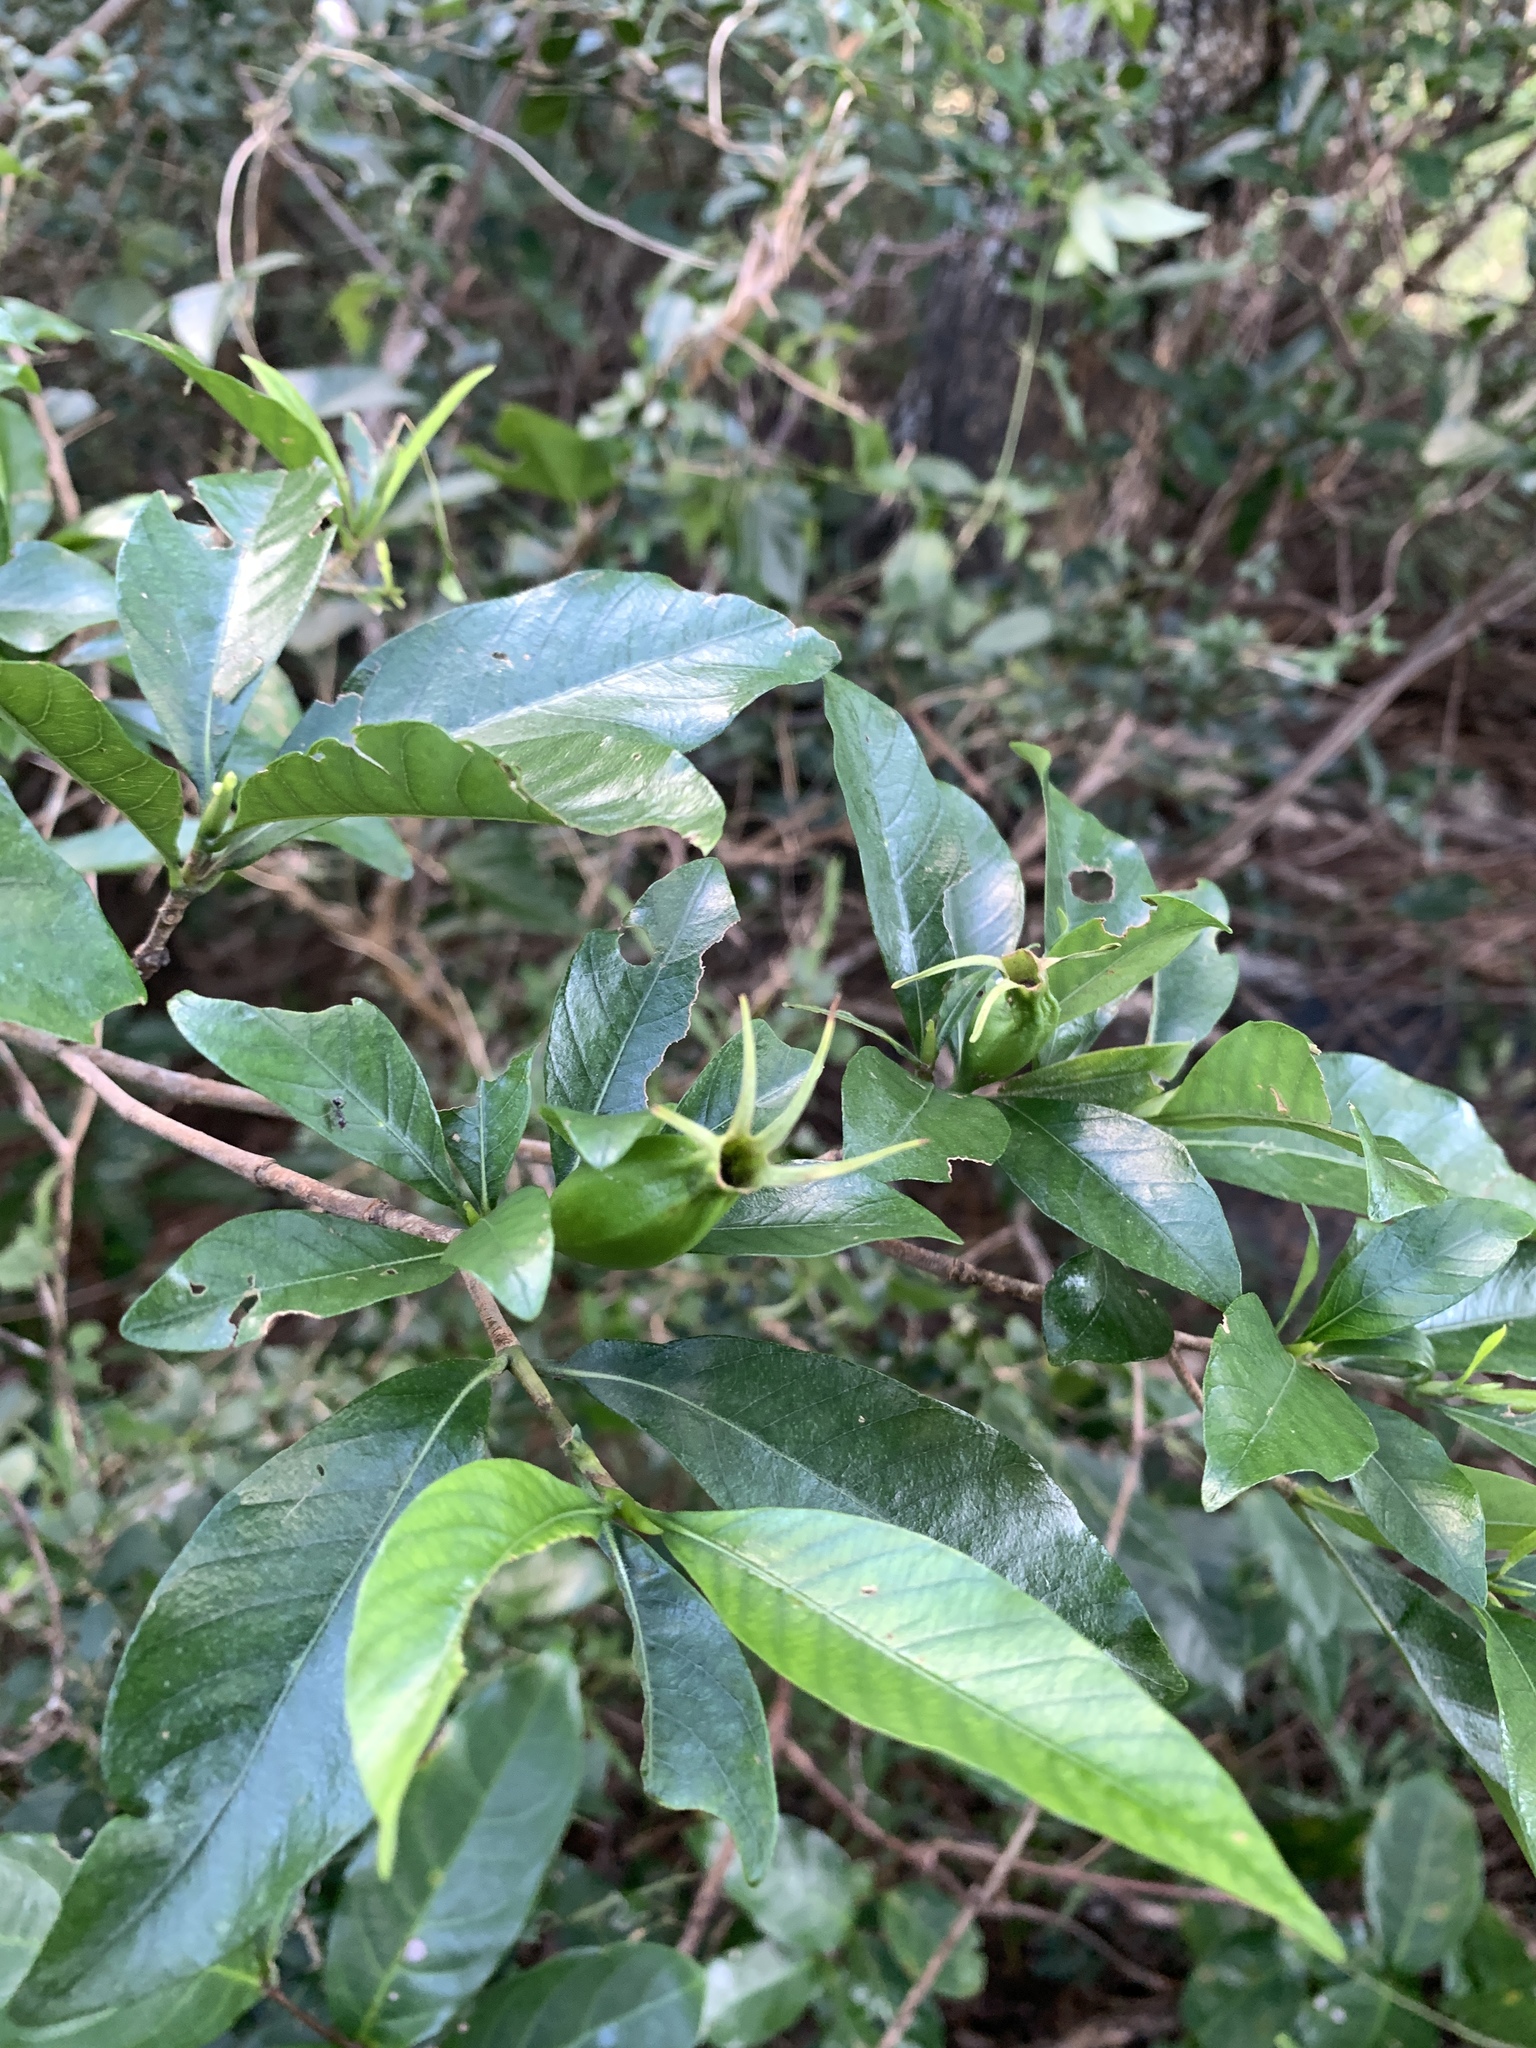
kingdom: Plantae
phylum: Tracheophyta
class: Magnoliopsida
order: Gentianales
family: Rubiaceae
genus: Gardenia
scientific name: Gardenia jasminoides
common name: Cape-jasmine
